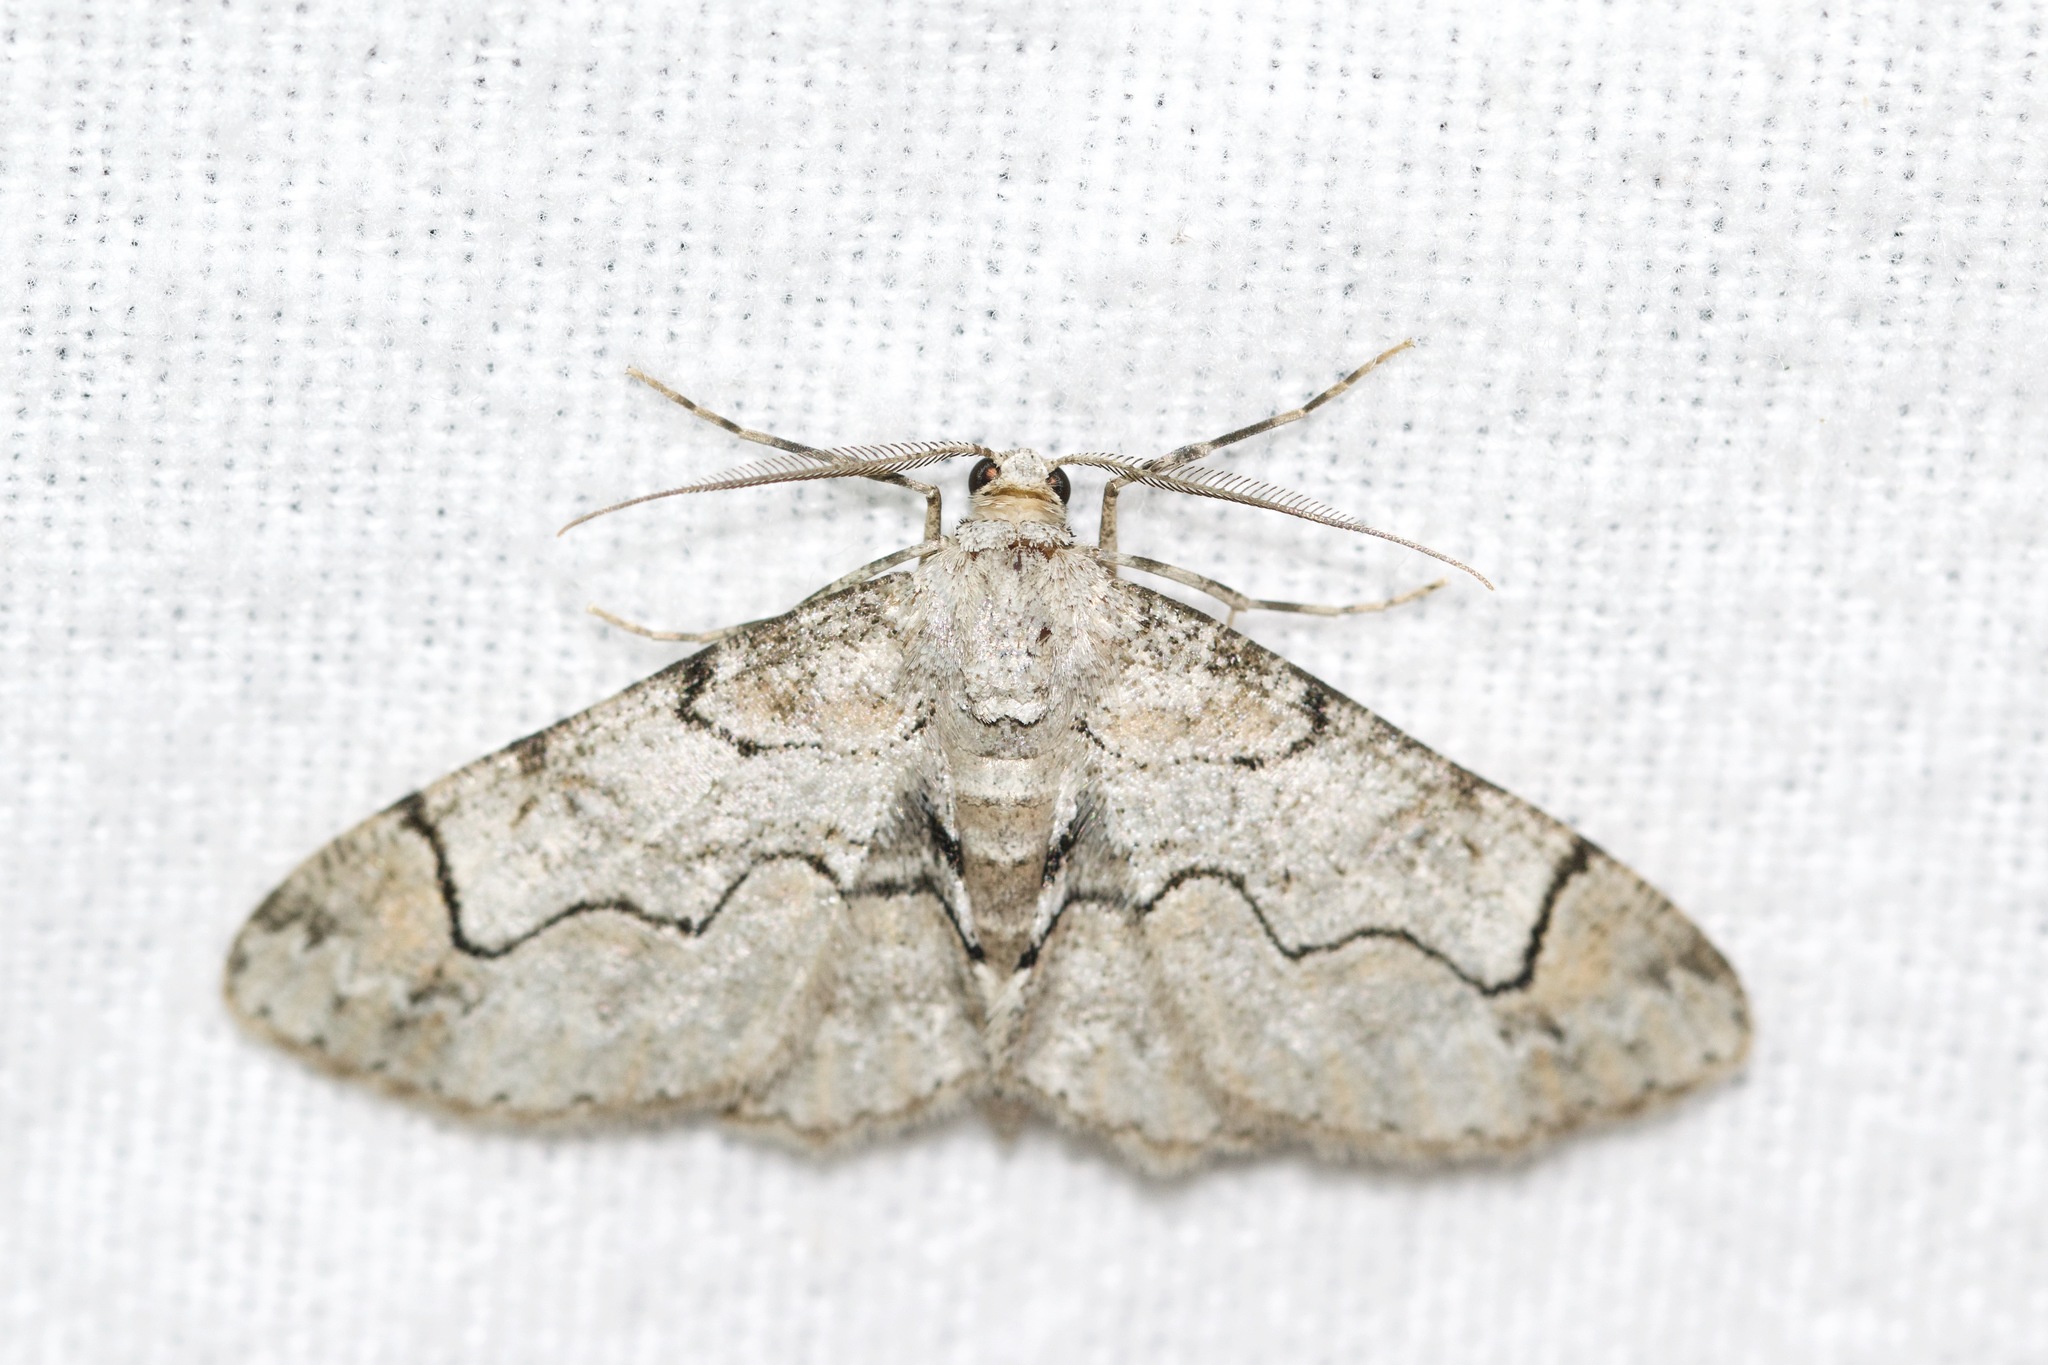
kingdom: Animalia
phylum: Arthropoda
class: Insecta
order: Lepidoptera
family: Geometridae
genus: Iridopsis
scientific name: Iridopsis larvaria
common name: Bent-line gray
